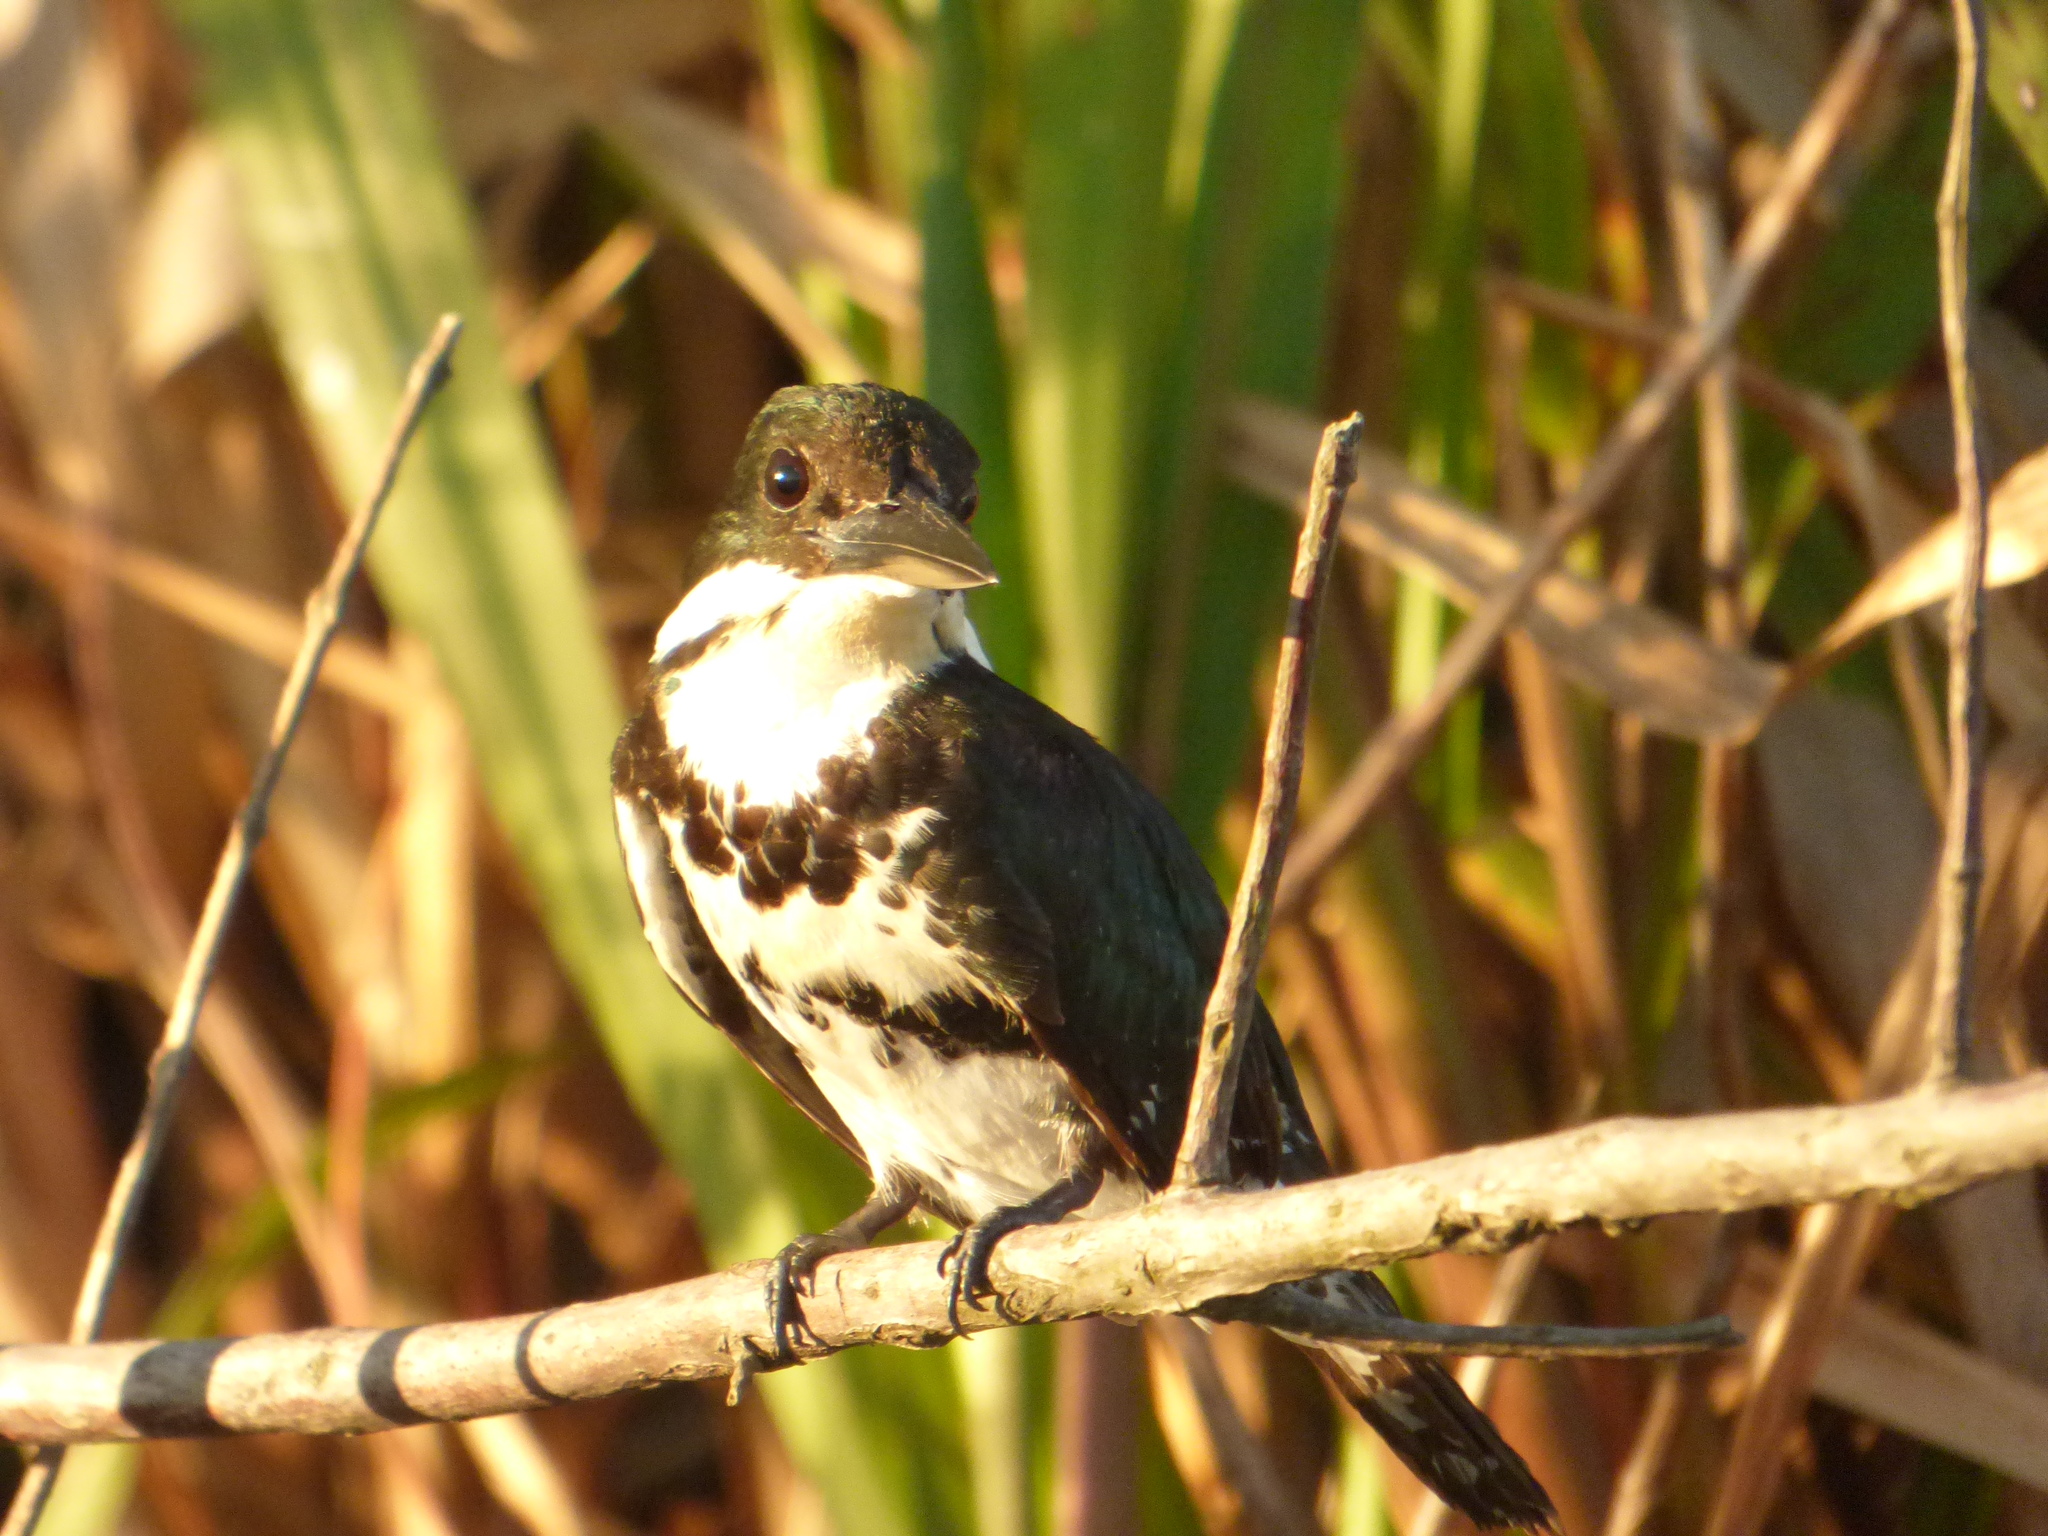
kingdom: Animalia
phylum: Chordata
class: Aves
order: Coraciiformes
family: Alcedinidae
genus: Chloroceryle
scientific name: Chloroceryle americana
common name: Green kingfisher
